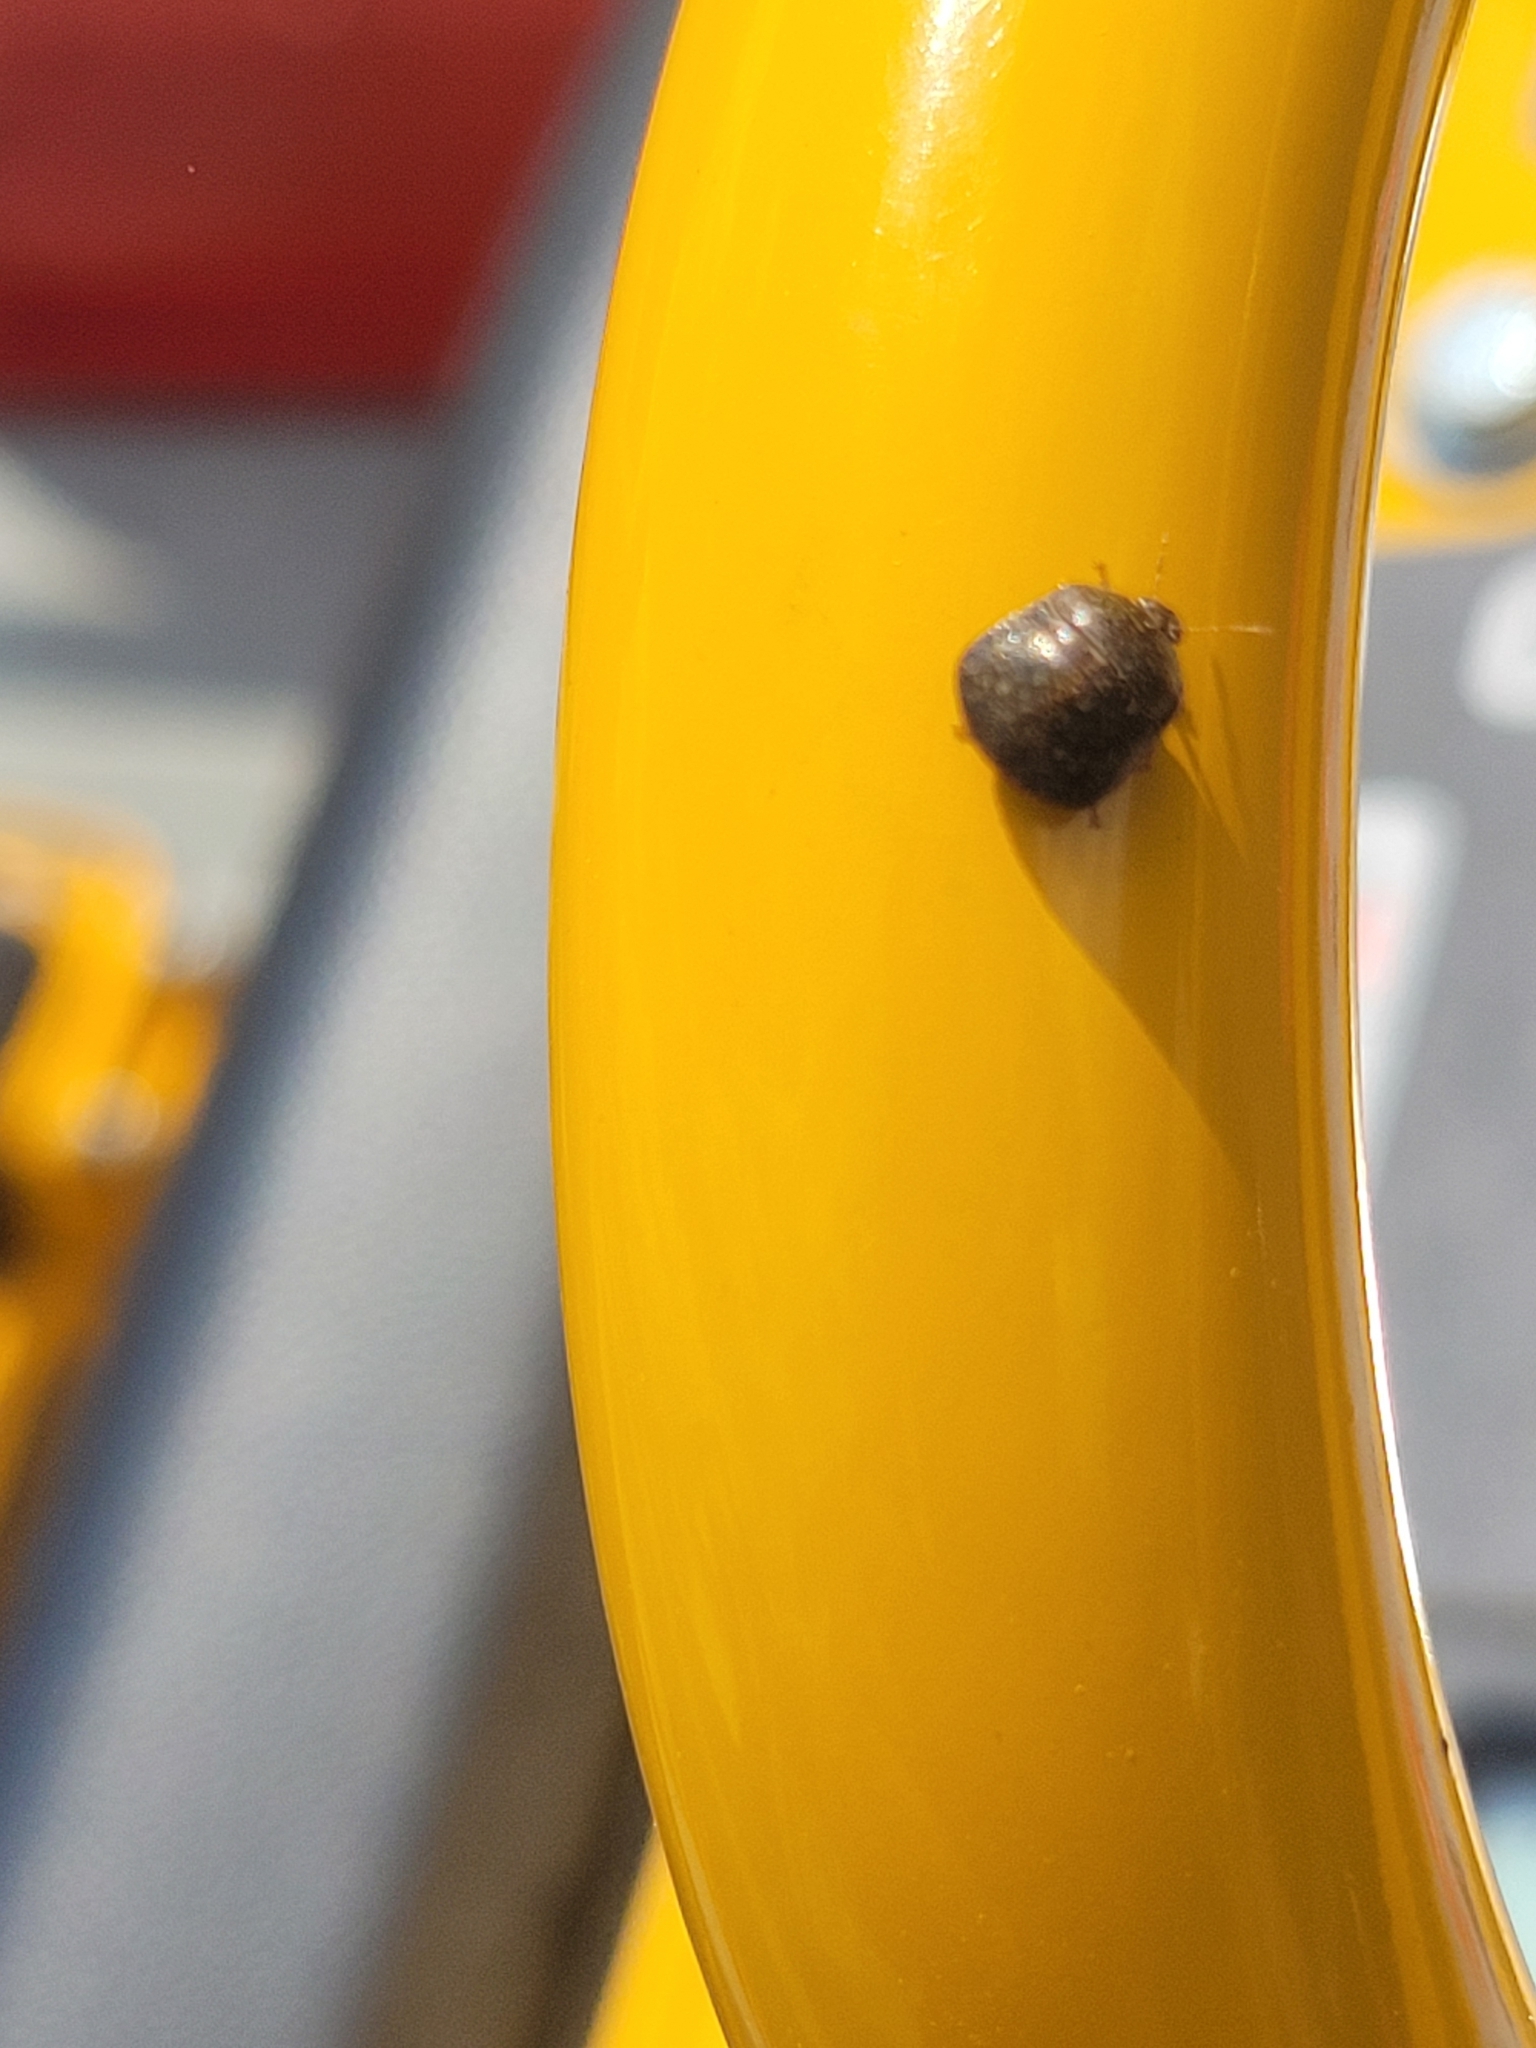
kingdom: Animalia
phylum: Arthropoda
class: Insecta
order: Hemiptera
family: Plataspidae
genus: Megacopta
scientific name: Megacopta cribraria
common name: Bean plataspid
